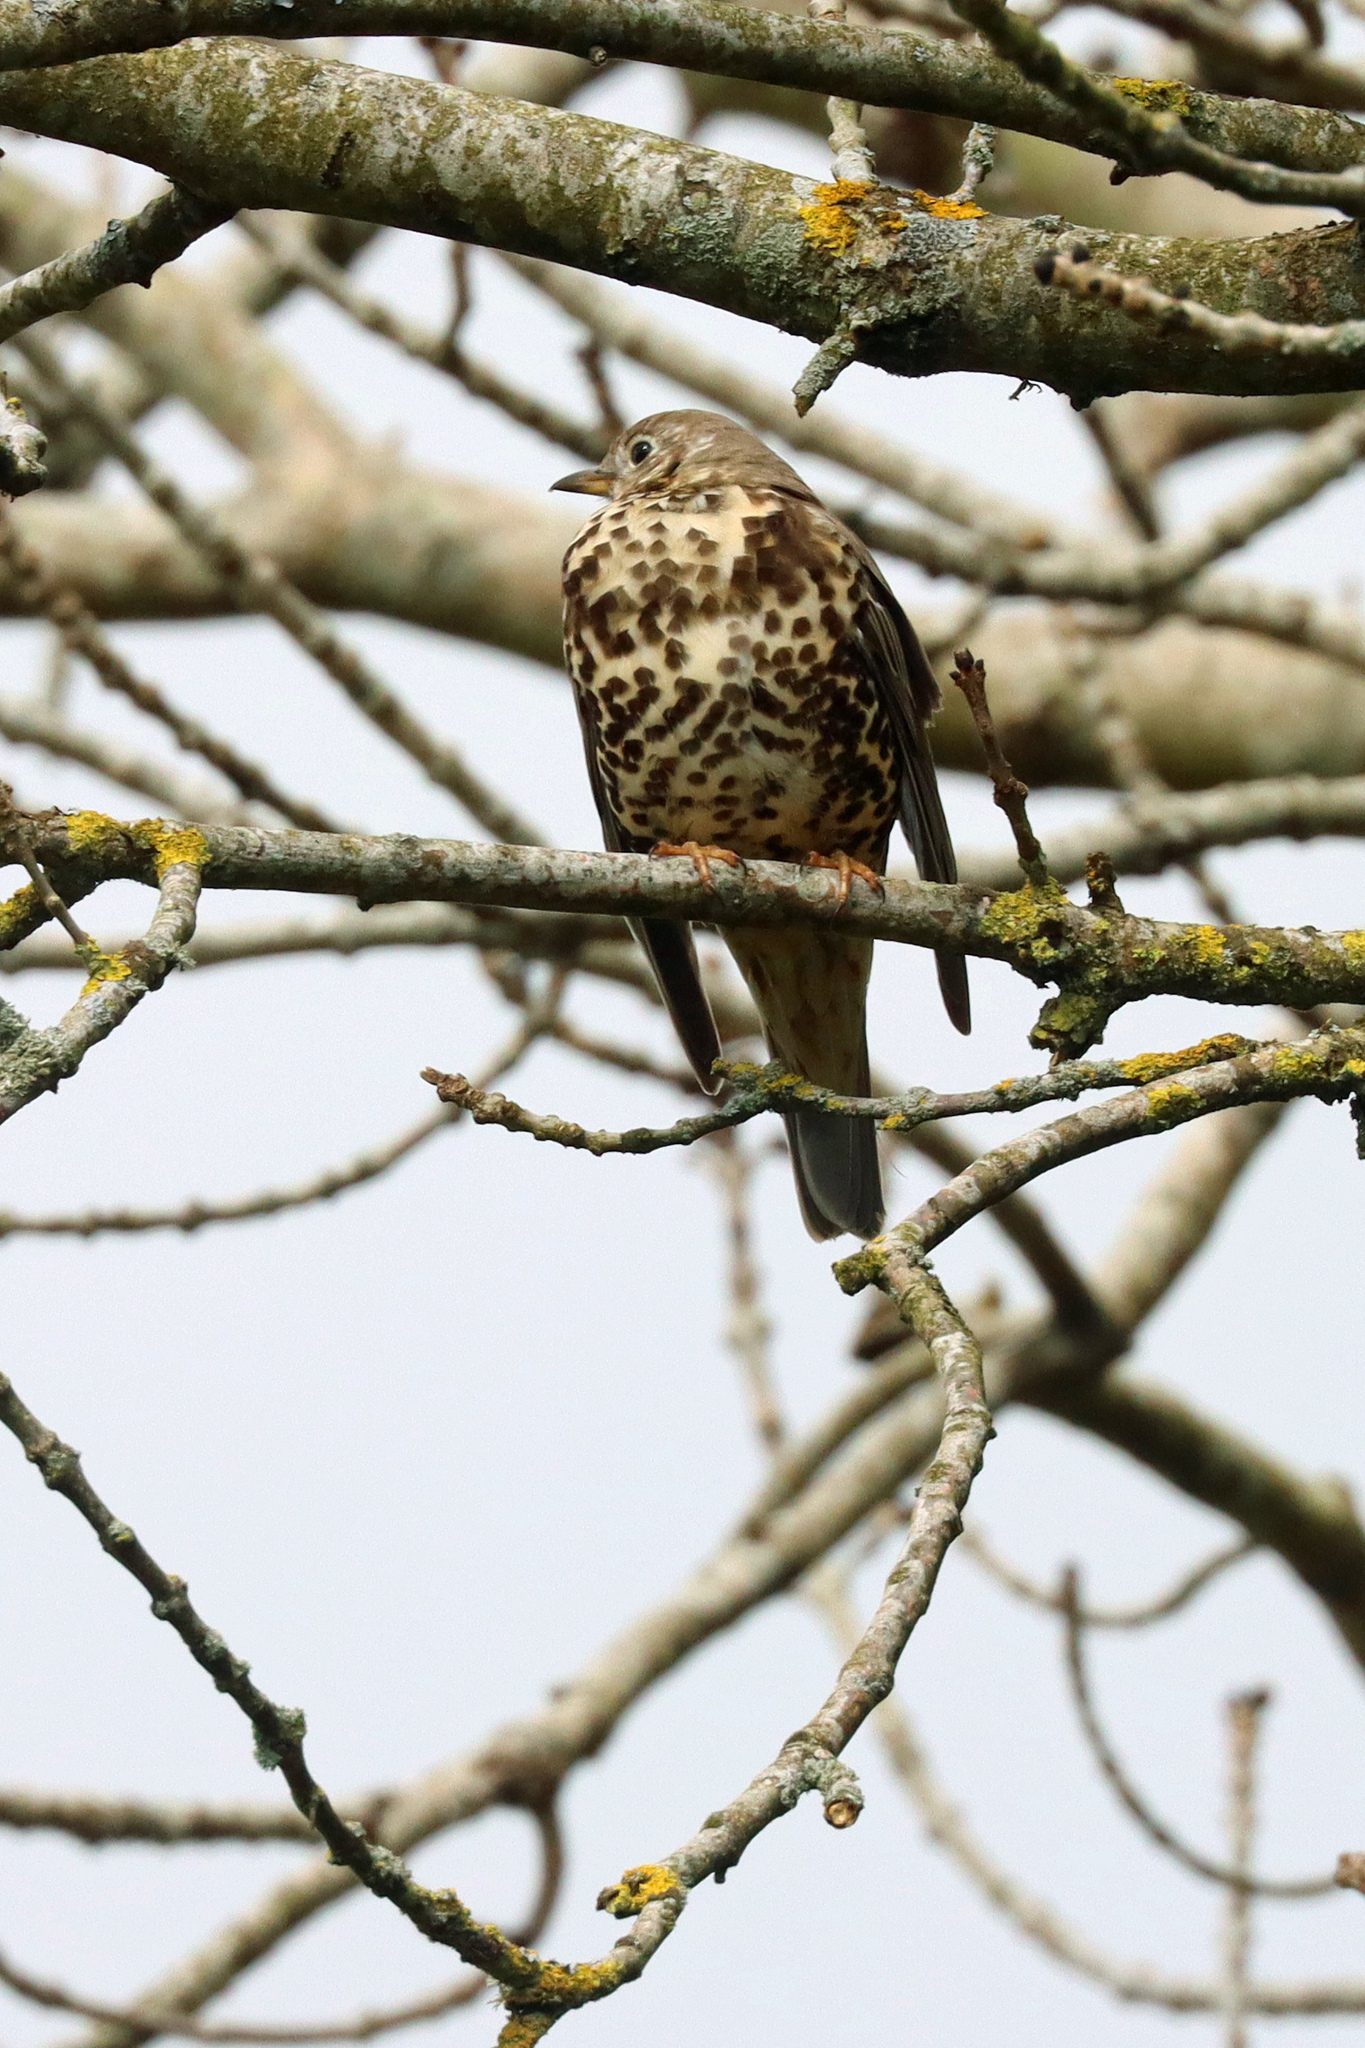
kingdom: Animalia
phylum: Chordata
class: Aves
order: Passeriformes
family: Turdidae
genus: Turdus
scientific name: Turdus viscivorus
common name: Mistle thrush
